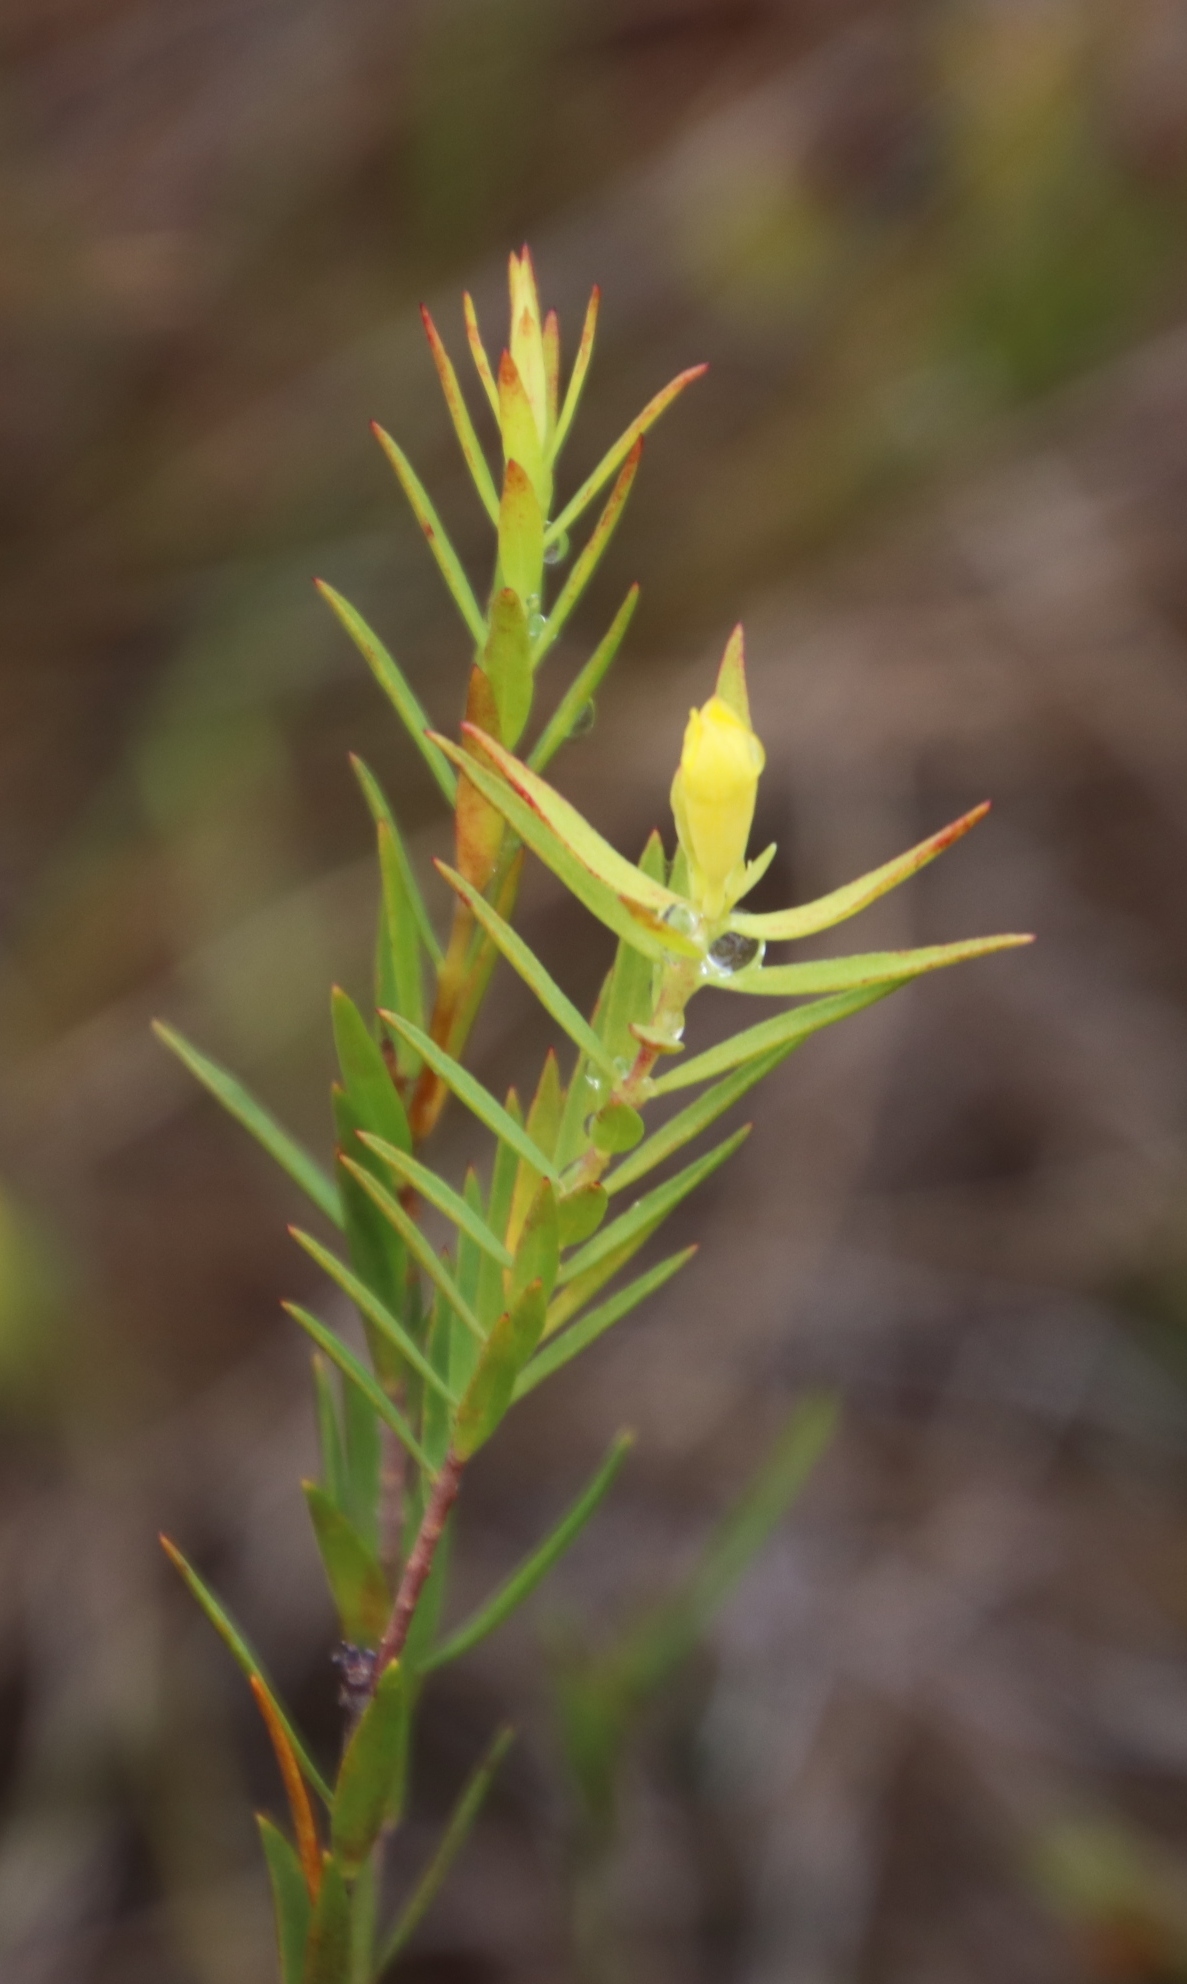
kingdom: Plantae
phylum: Tracheophyta
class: Magnoliopsida
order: Malvales
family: Thymelaeaceae
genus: Gnidia
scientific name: Gnidia galpinii
